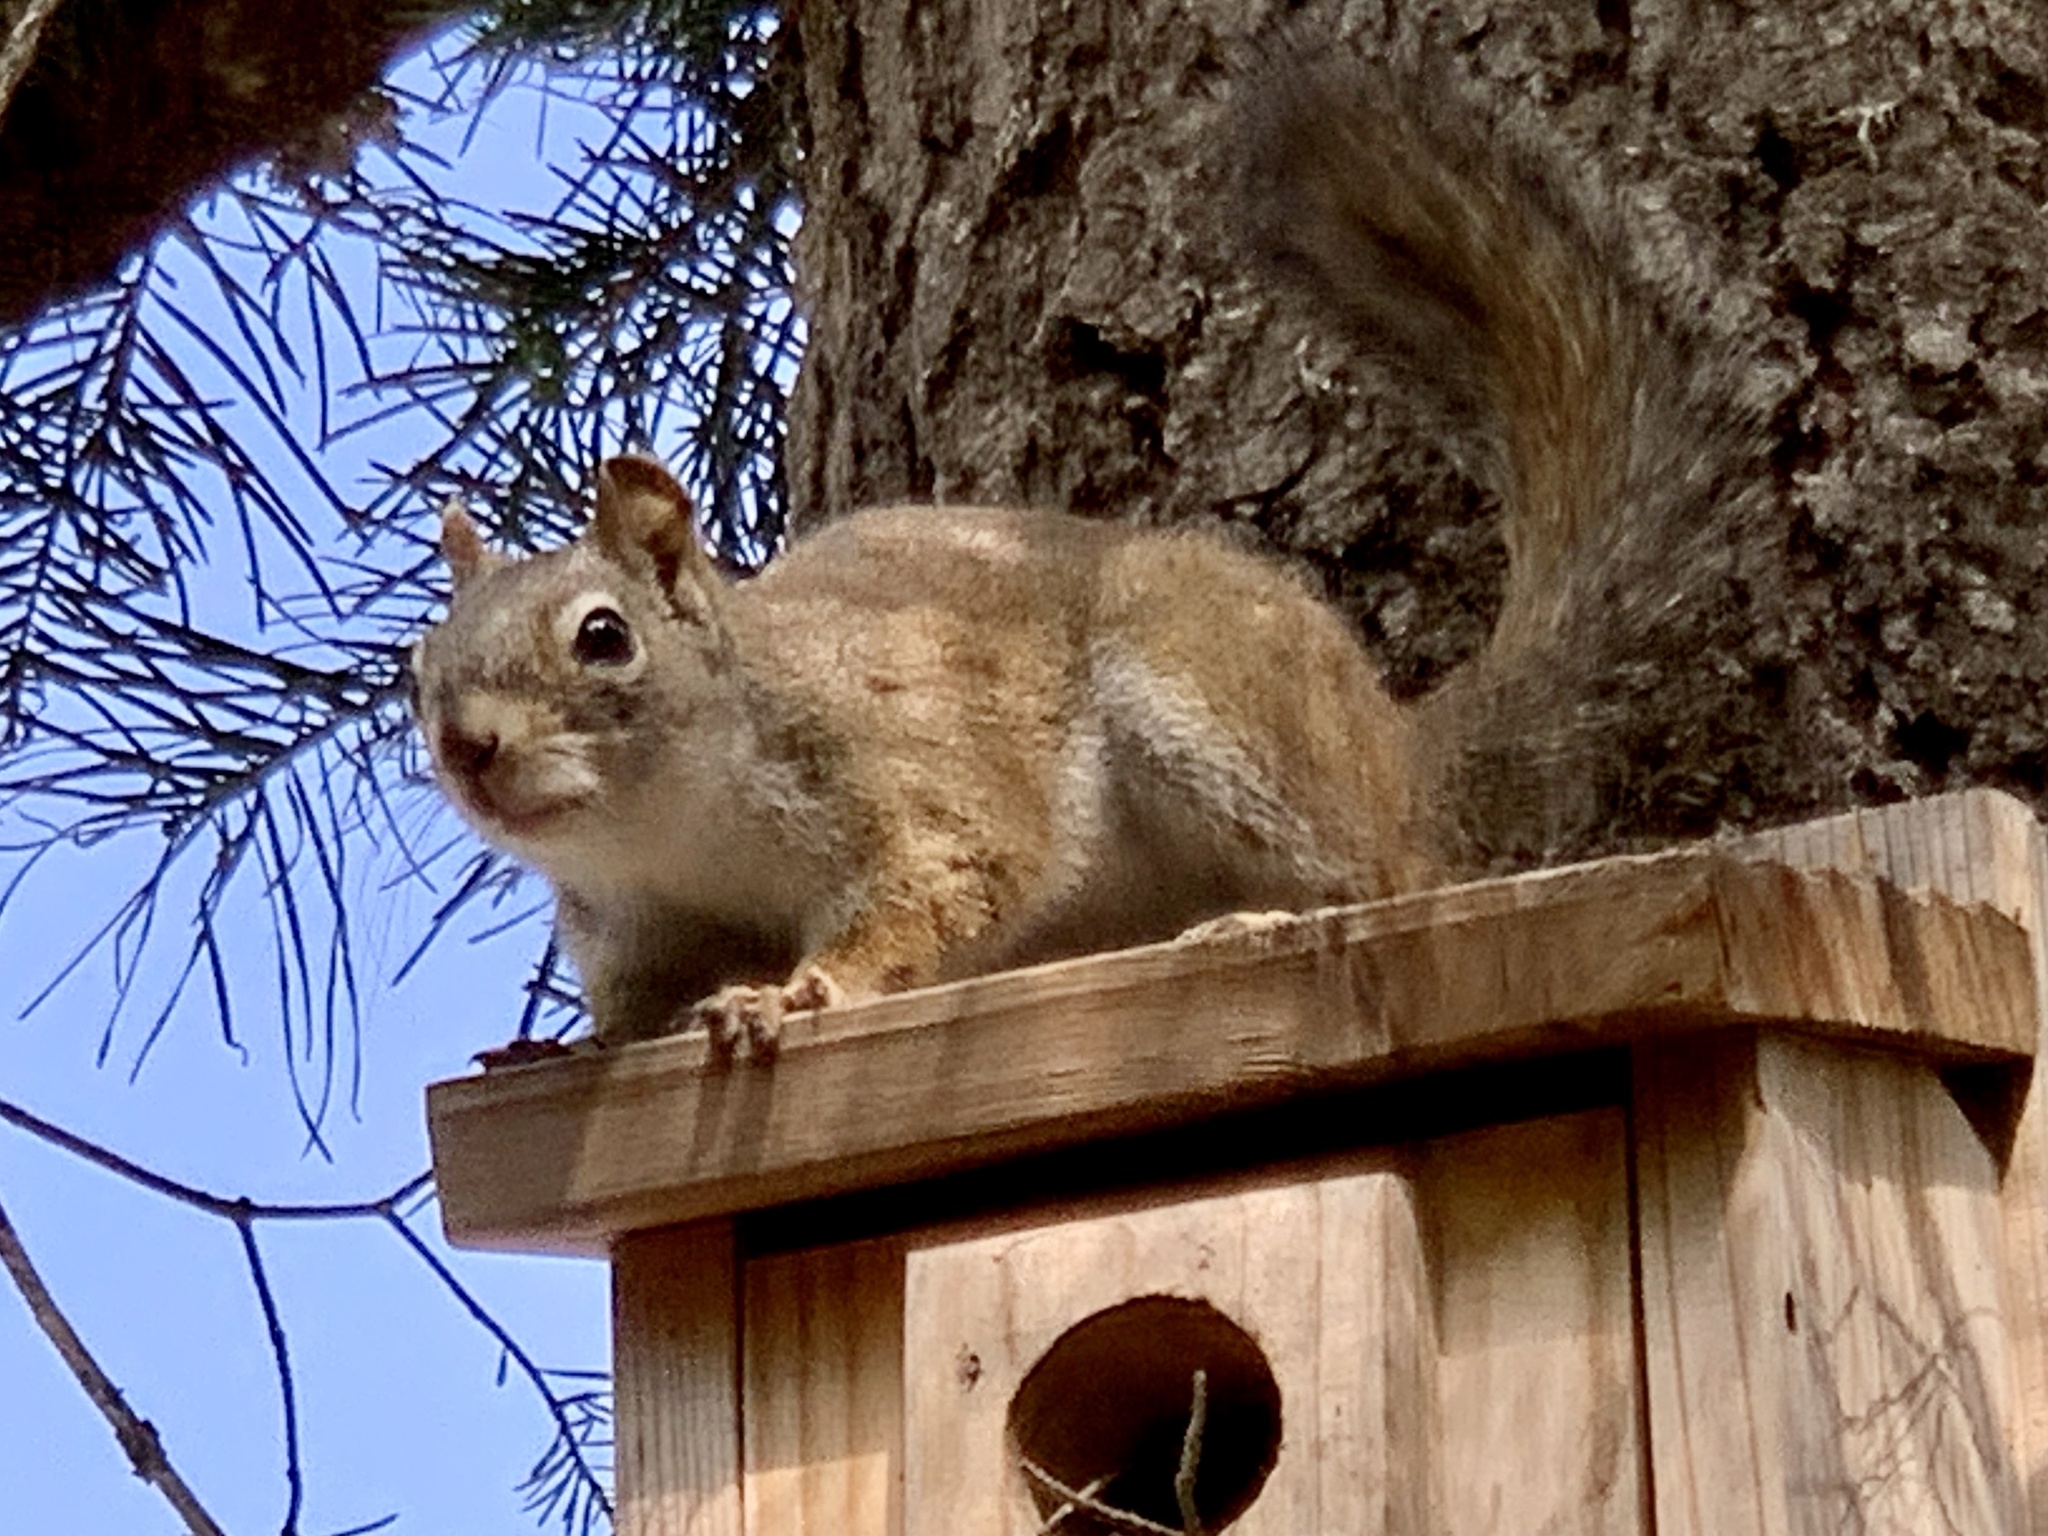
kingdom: Animalia
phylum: Chordata
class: Mammalia
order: Rodentia
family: Sciuridae
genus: Tamiasciurus
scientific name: Tamiasciurus hudsonicus
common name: Red squirrel
